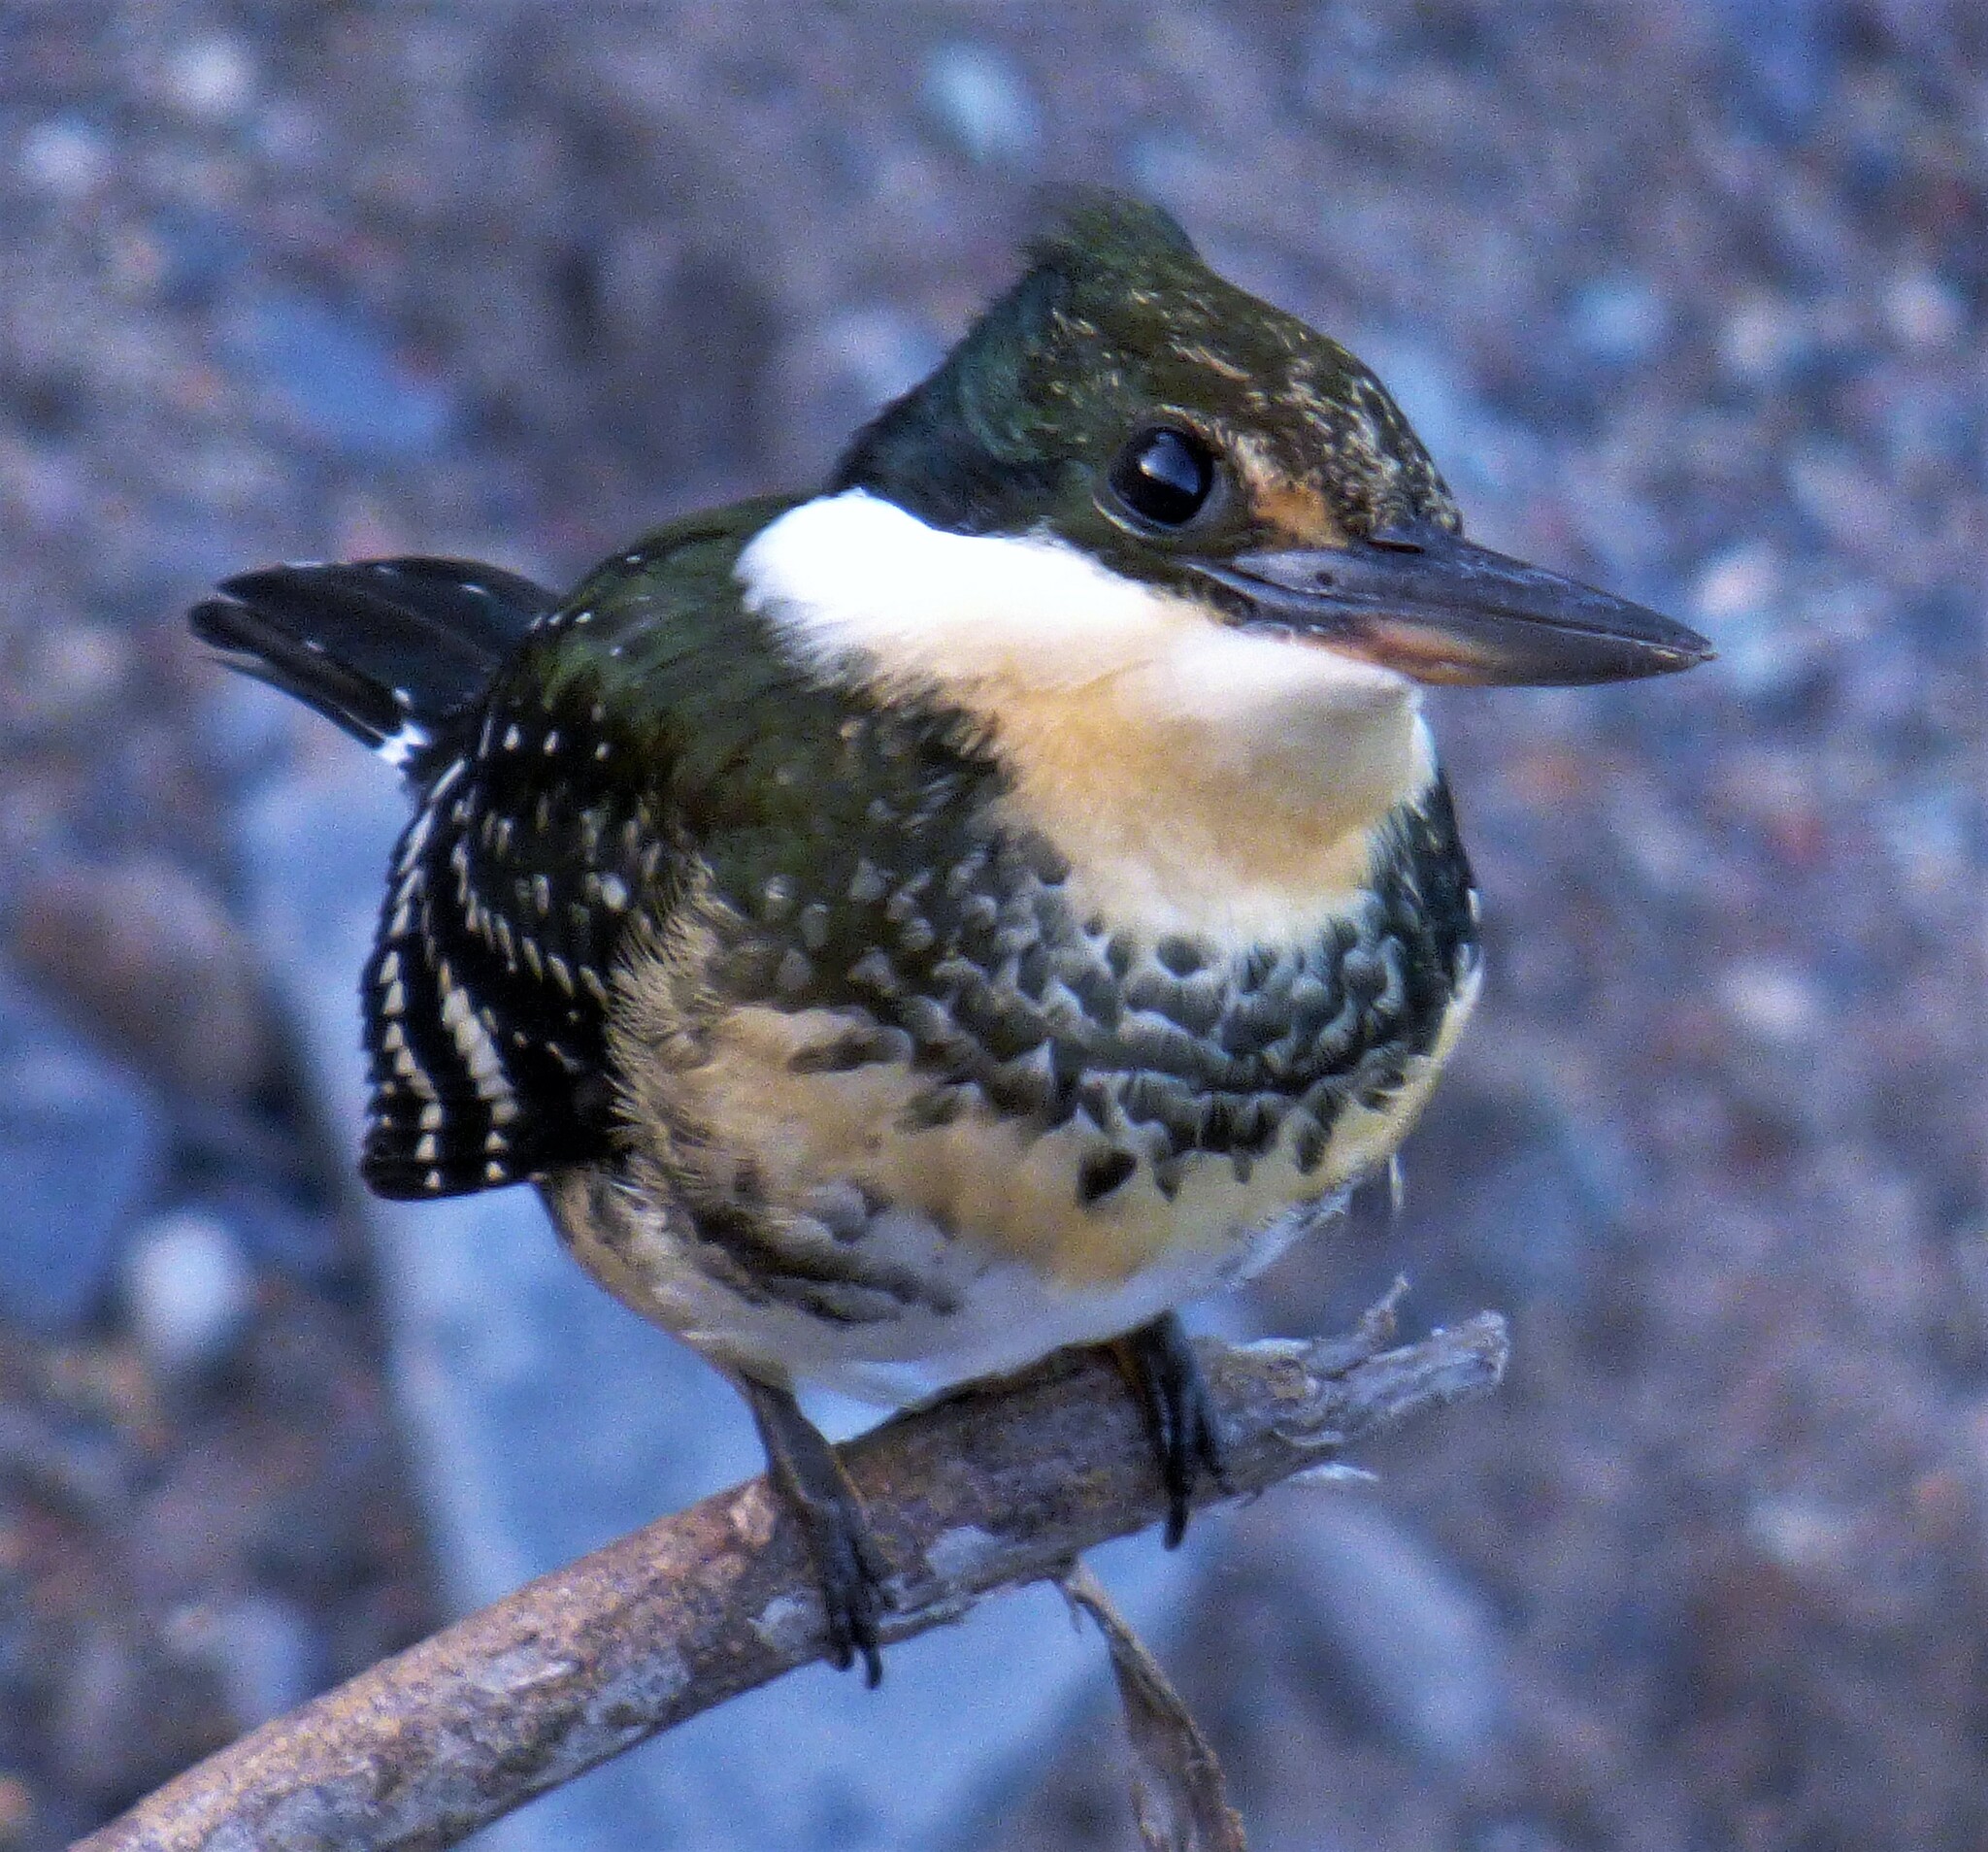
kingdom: Animalia
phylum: Chordata
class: Aves
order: Coraciiformes
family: Alcedinidae
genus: Chloroceryle
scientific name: Chloroceryle americana
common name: Green kingfisher
